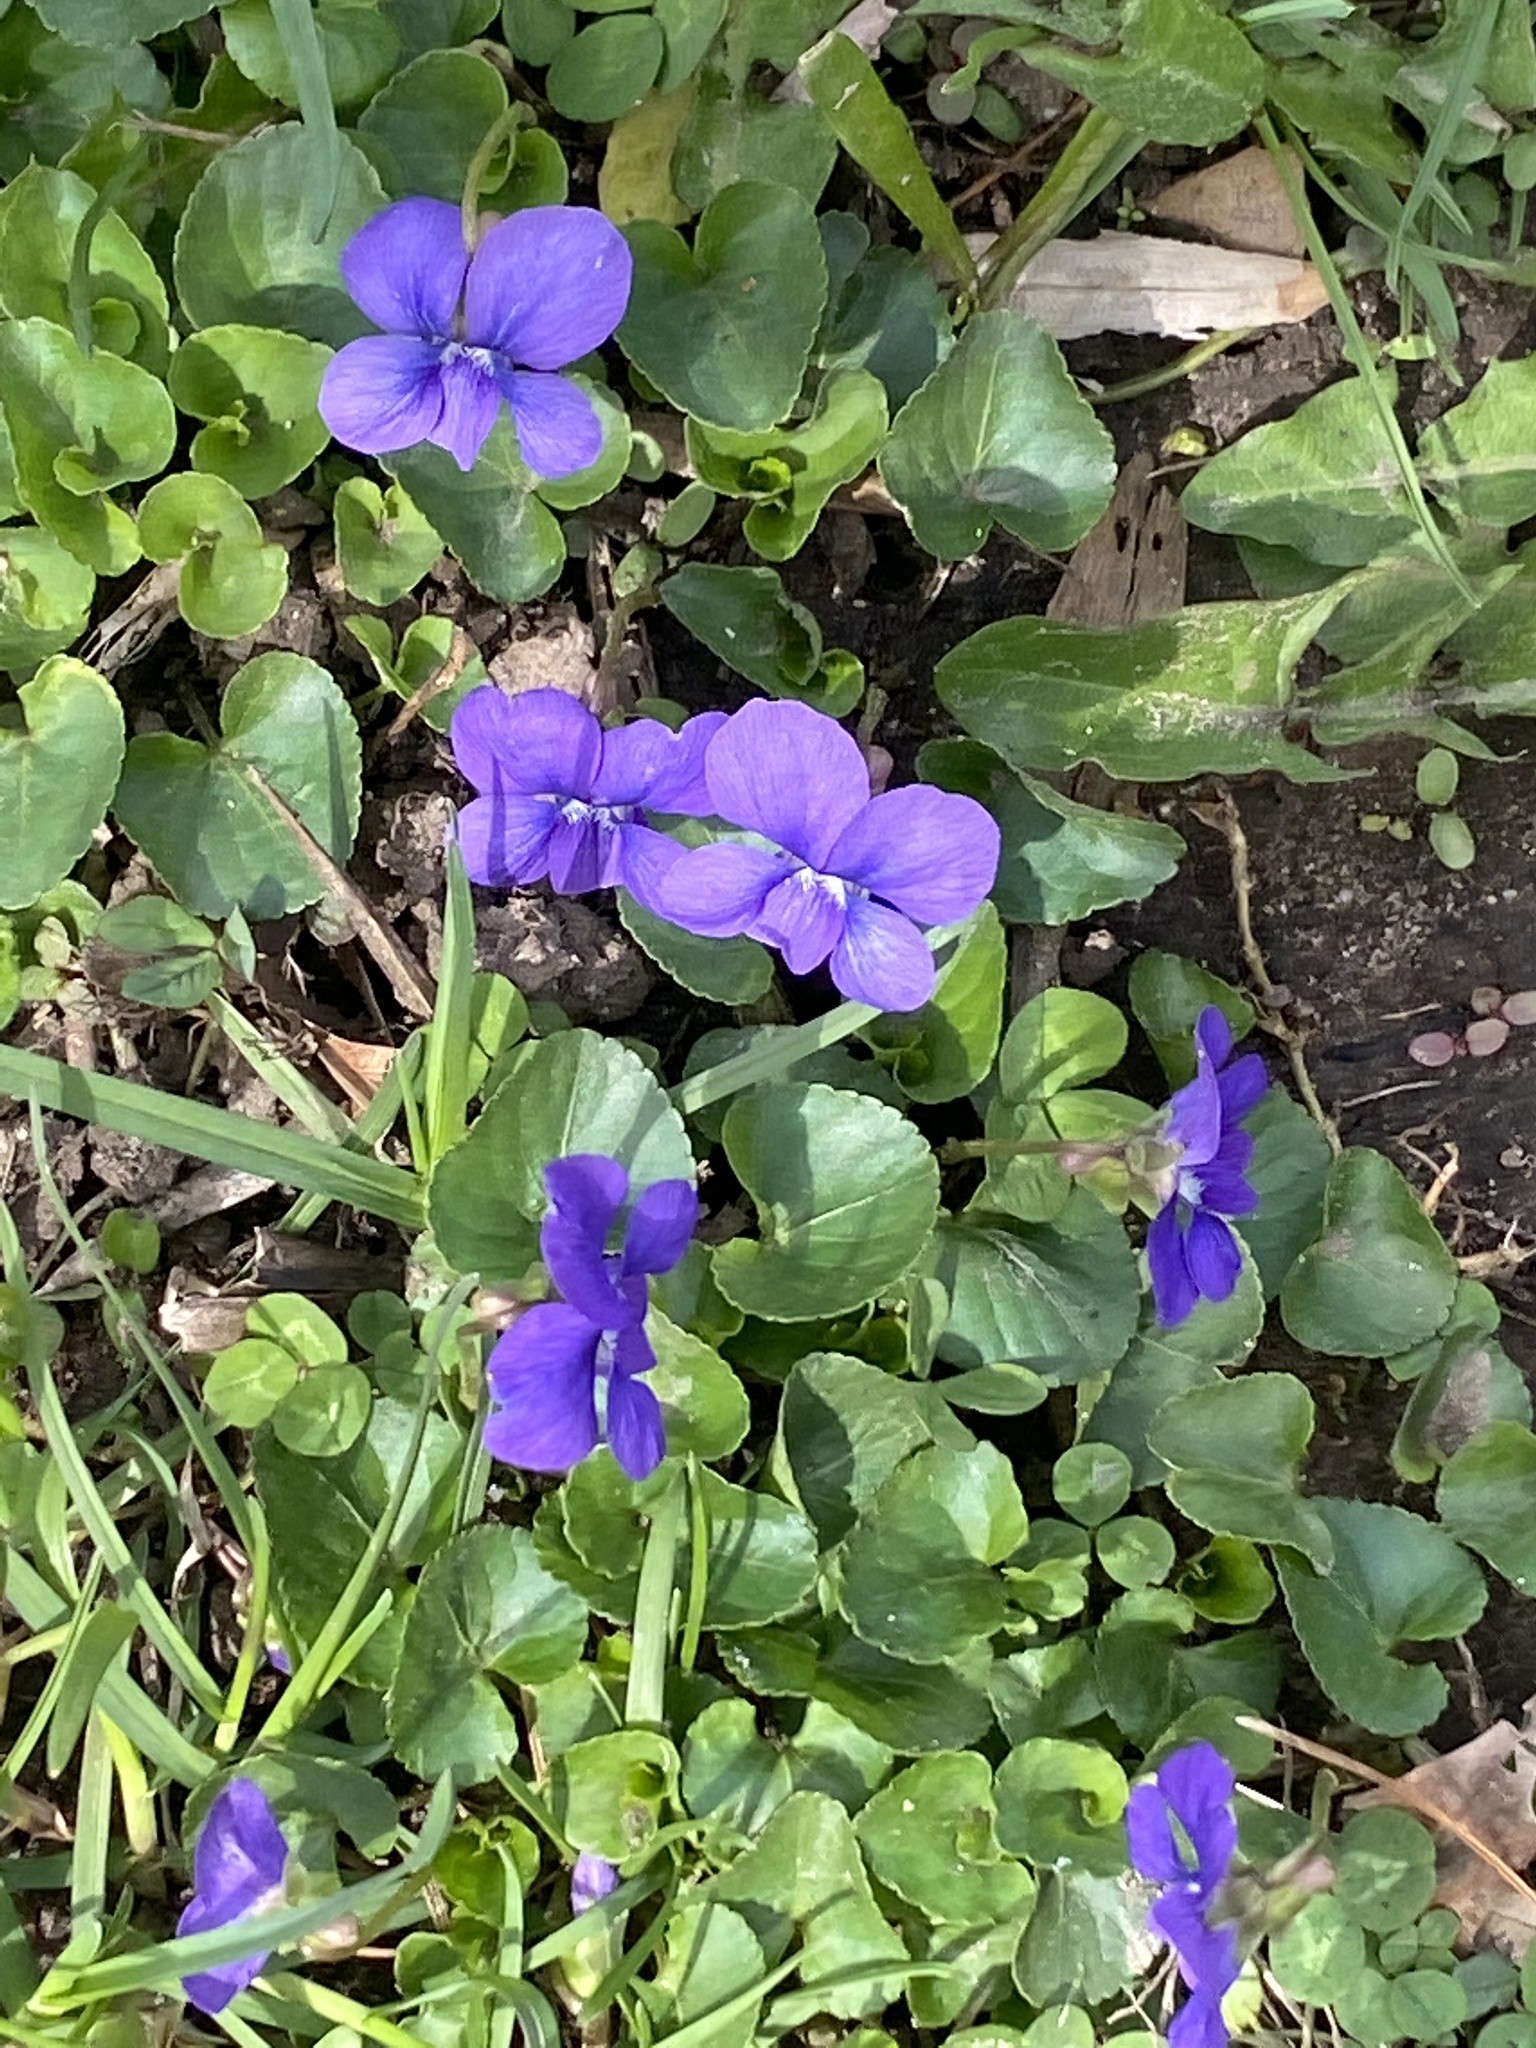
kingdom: Plantae
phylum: Tracheophyta
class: Magnoliopsida
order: Malpighiales
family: Violaceae
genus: Viola
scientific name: Viola sororia
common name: Dooryard violet
